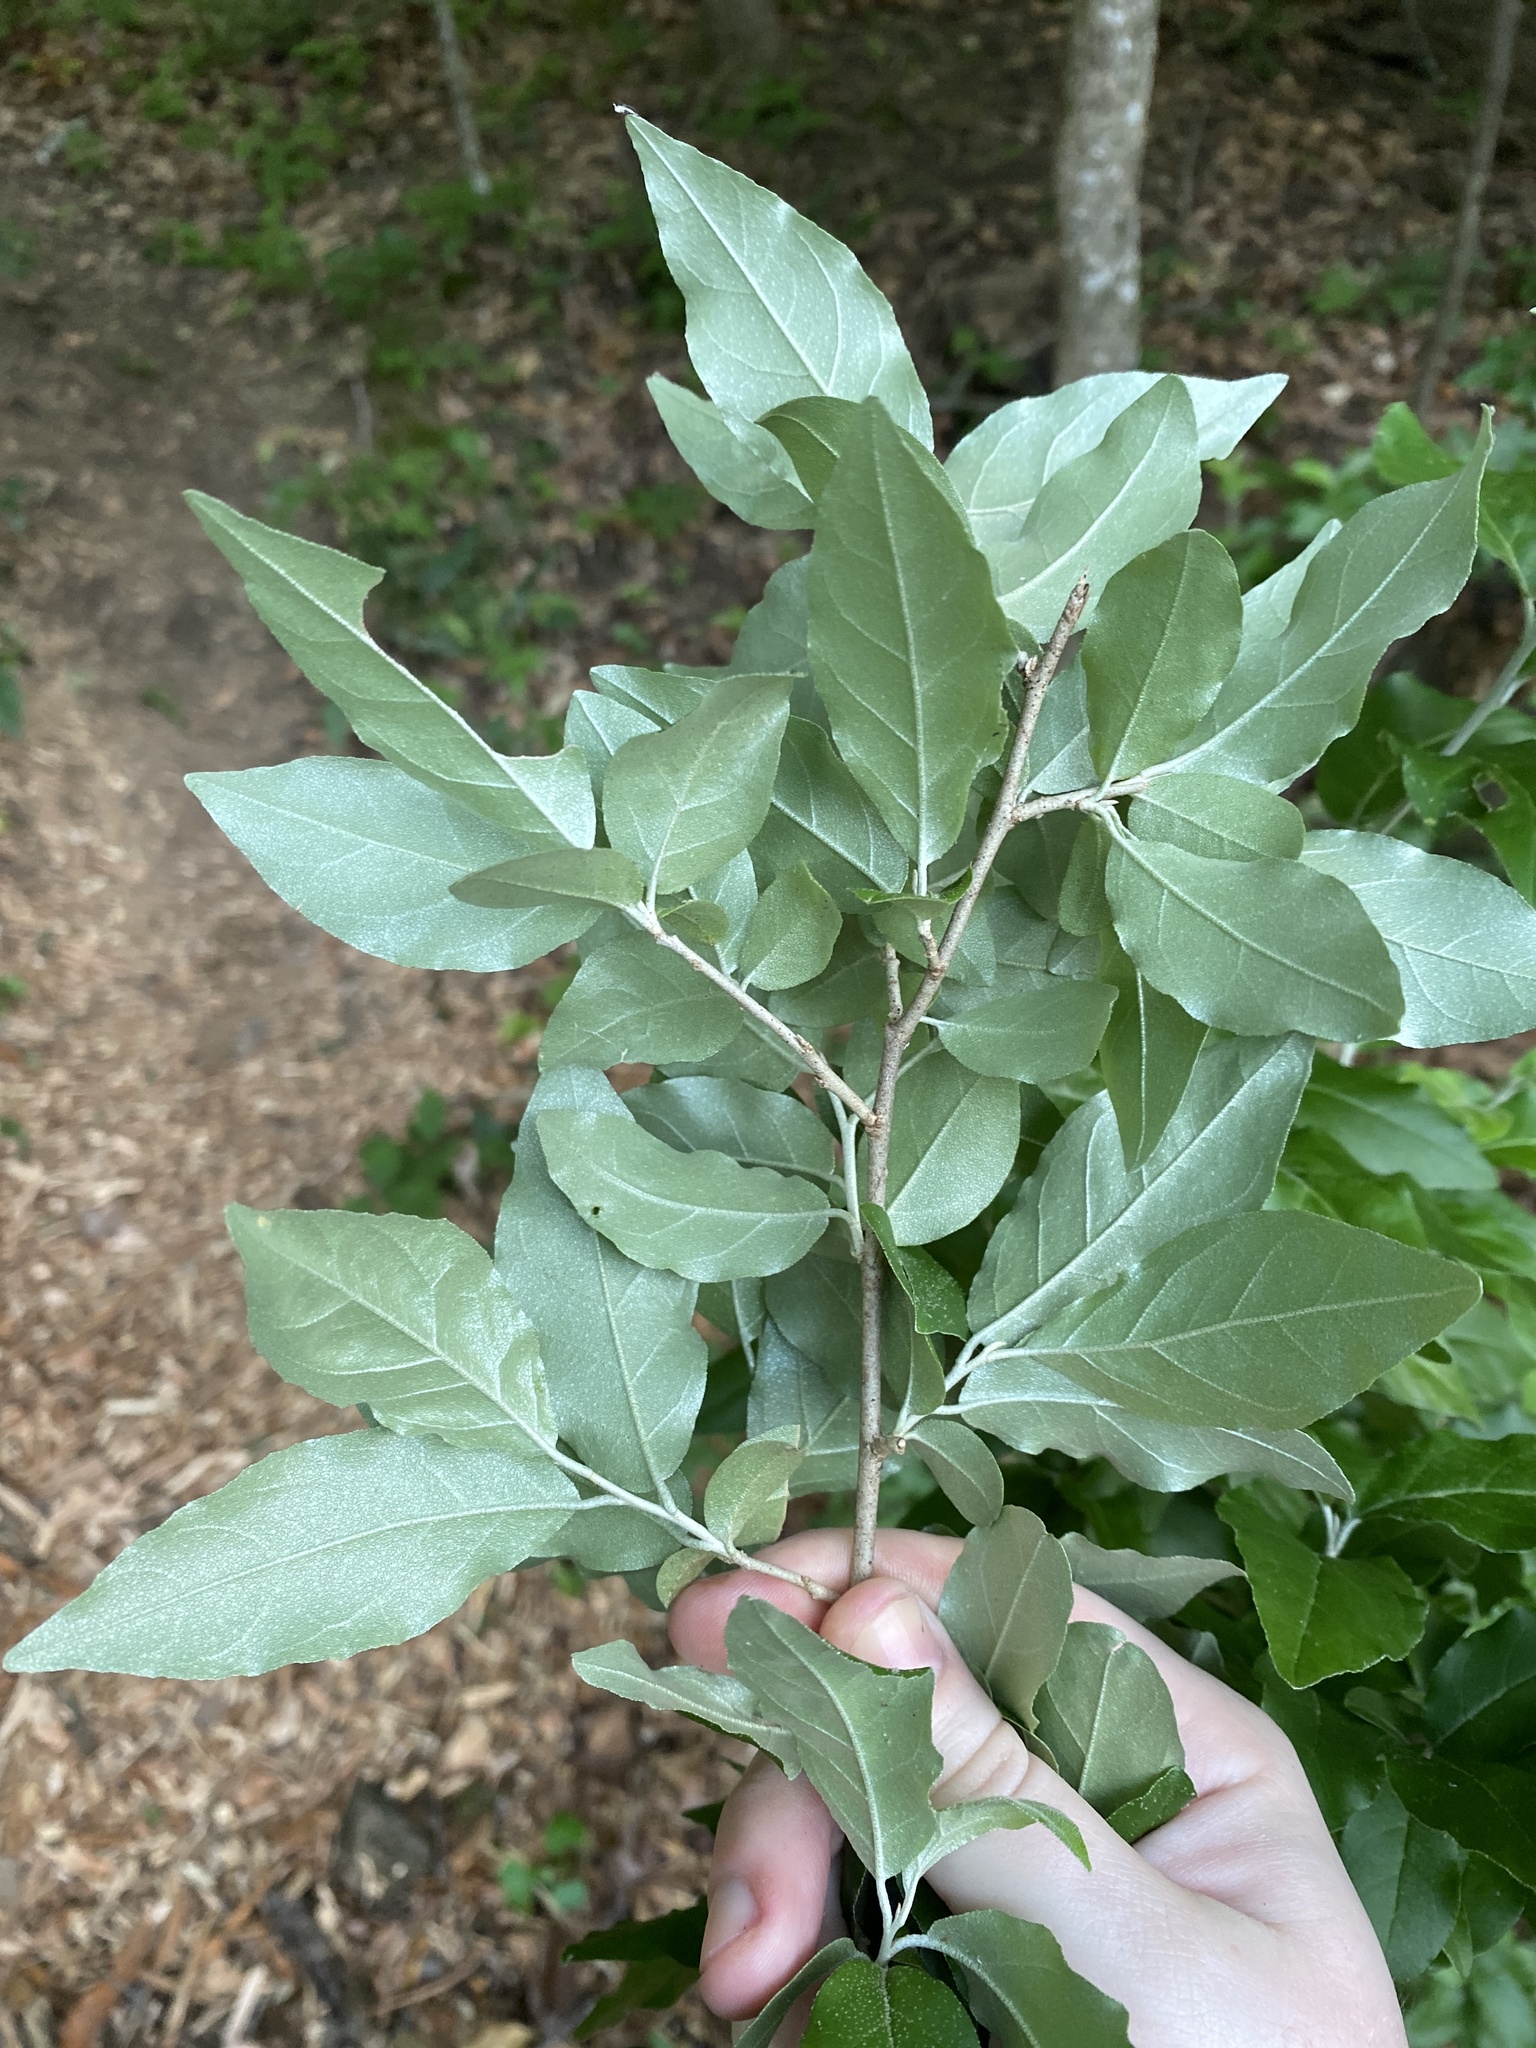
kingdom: Plantae
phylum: Tracheophyta
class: Magnoliopsida
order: Rosales
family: Elaeagnaceae
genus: Elaeagnus
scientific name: Elaeagnus umbellata
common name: Autumn olive
